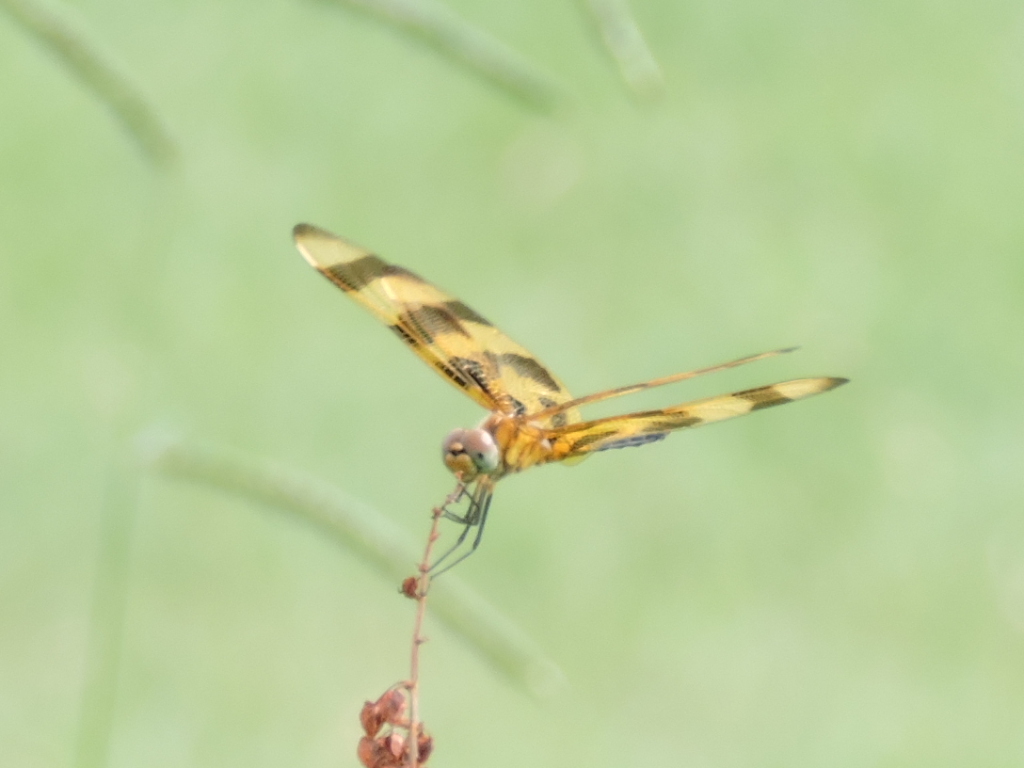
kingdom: Animalia
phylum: Arthropoda
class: Insecta
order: Odonata
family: Libellulidae
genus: Celithemis
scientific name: Celithemis eponina
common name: Halloween pennant
